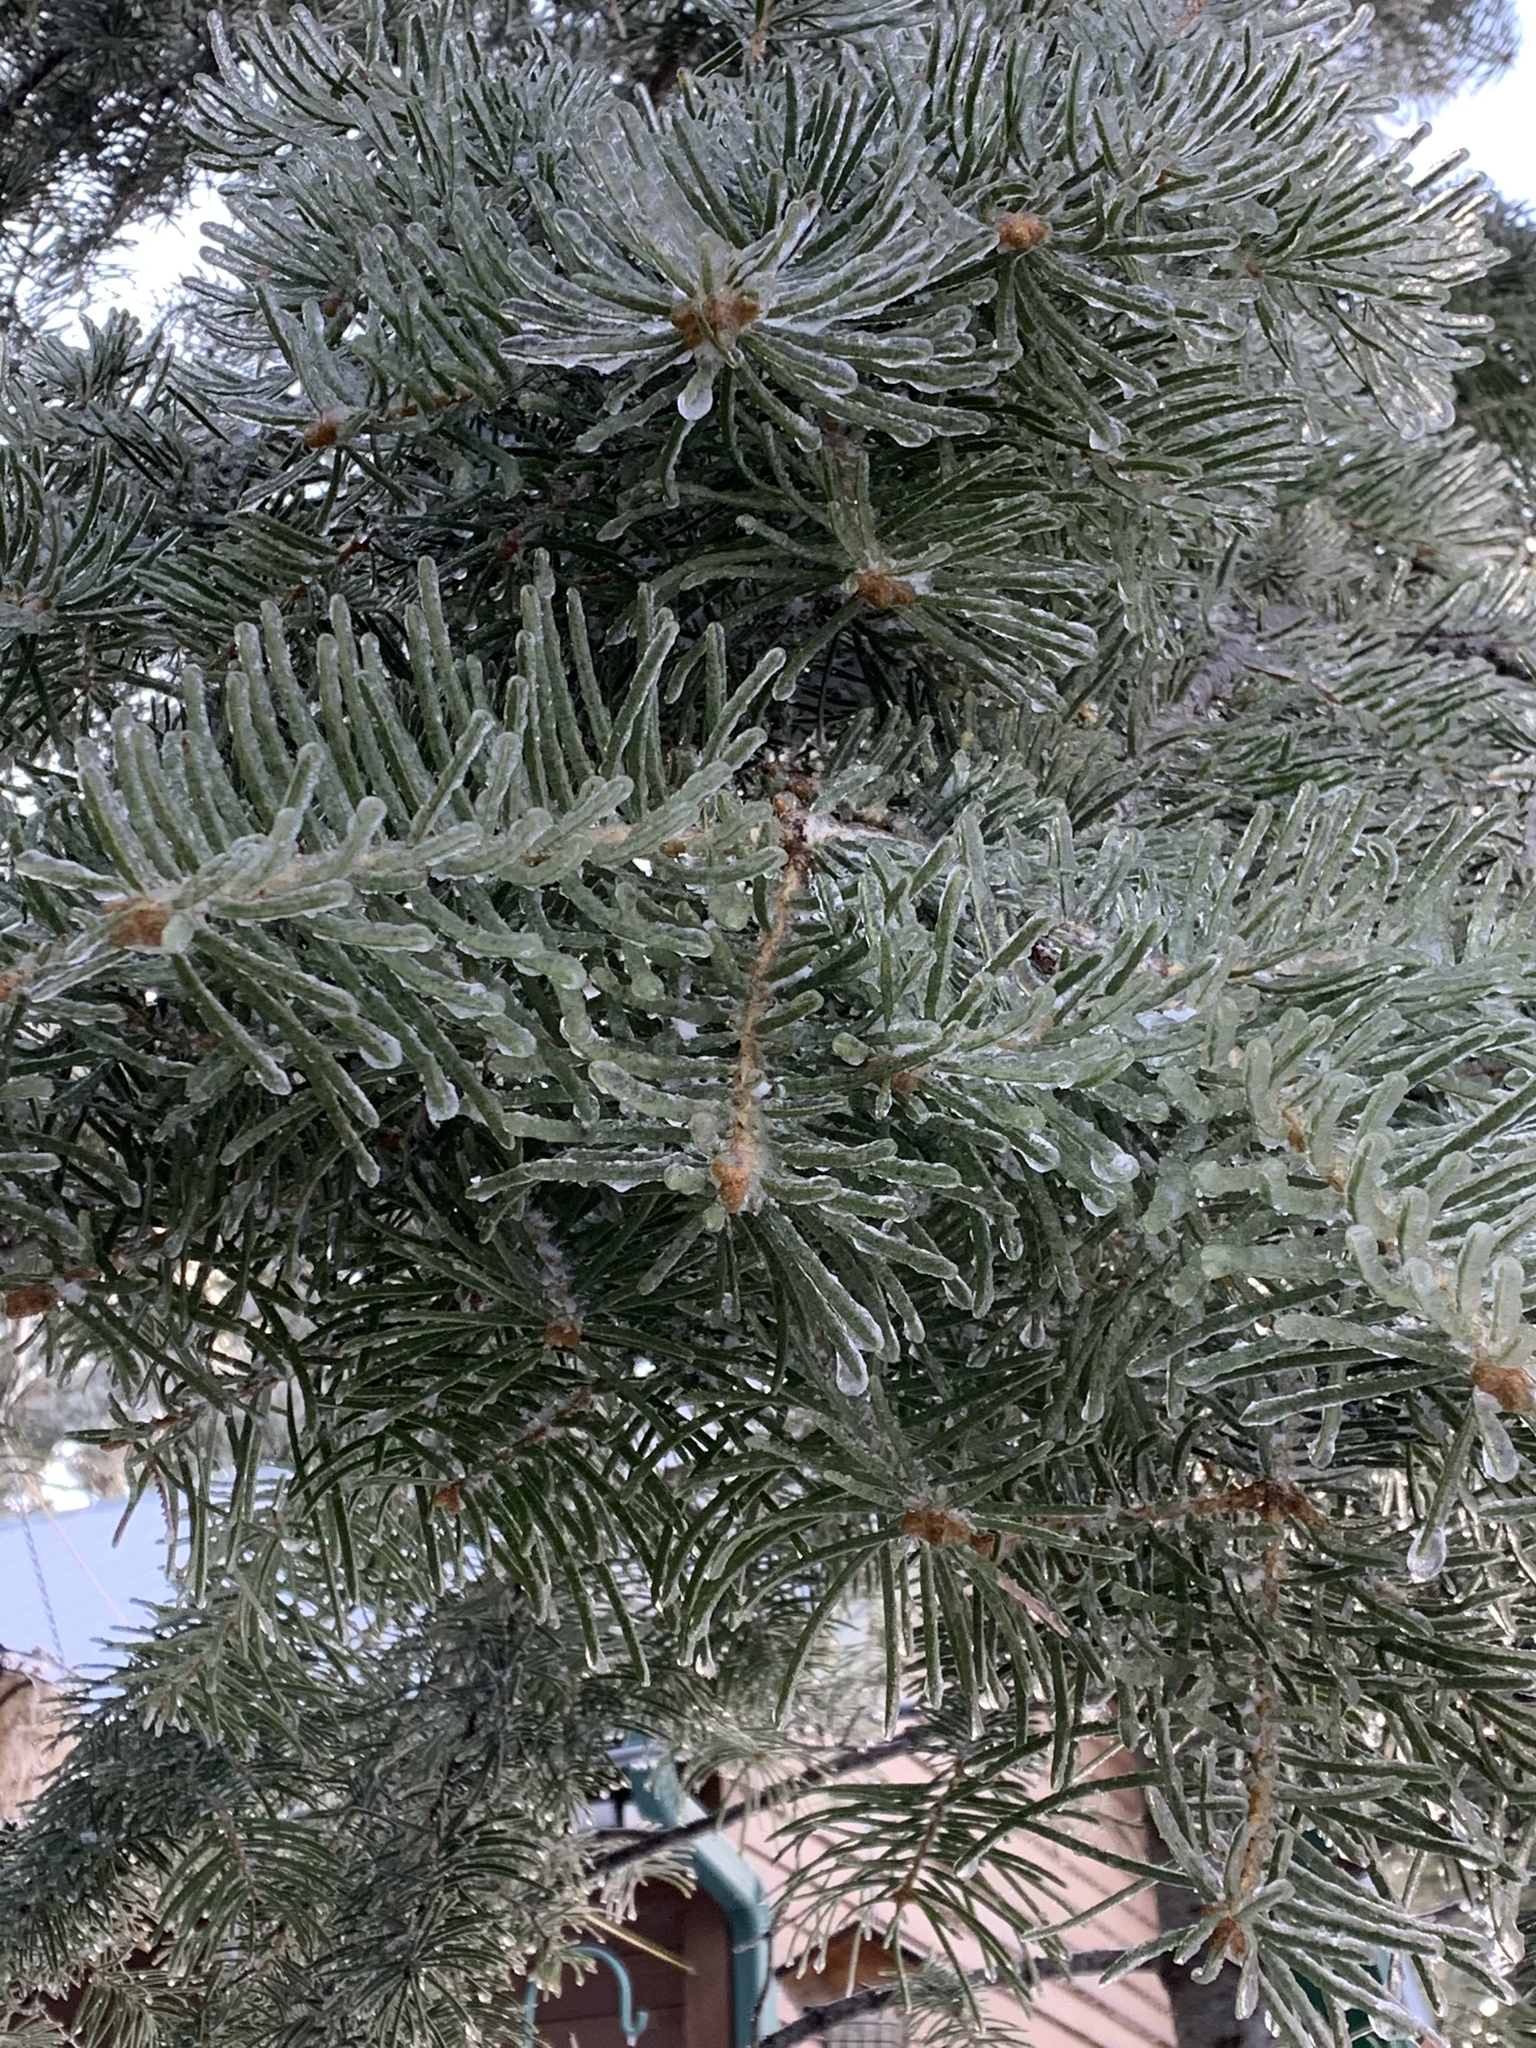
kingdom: Plantae
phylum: Tracheophyta
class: Pinopsida
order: Pinales
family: Pinaceae
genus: Pseudotsuga
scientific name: Pseudotsuga menziesii
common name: Douglas fir
